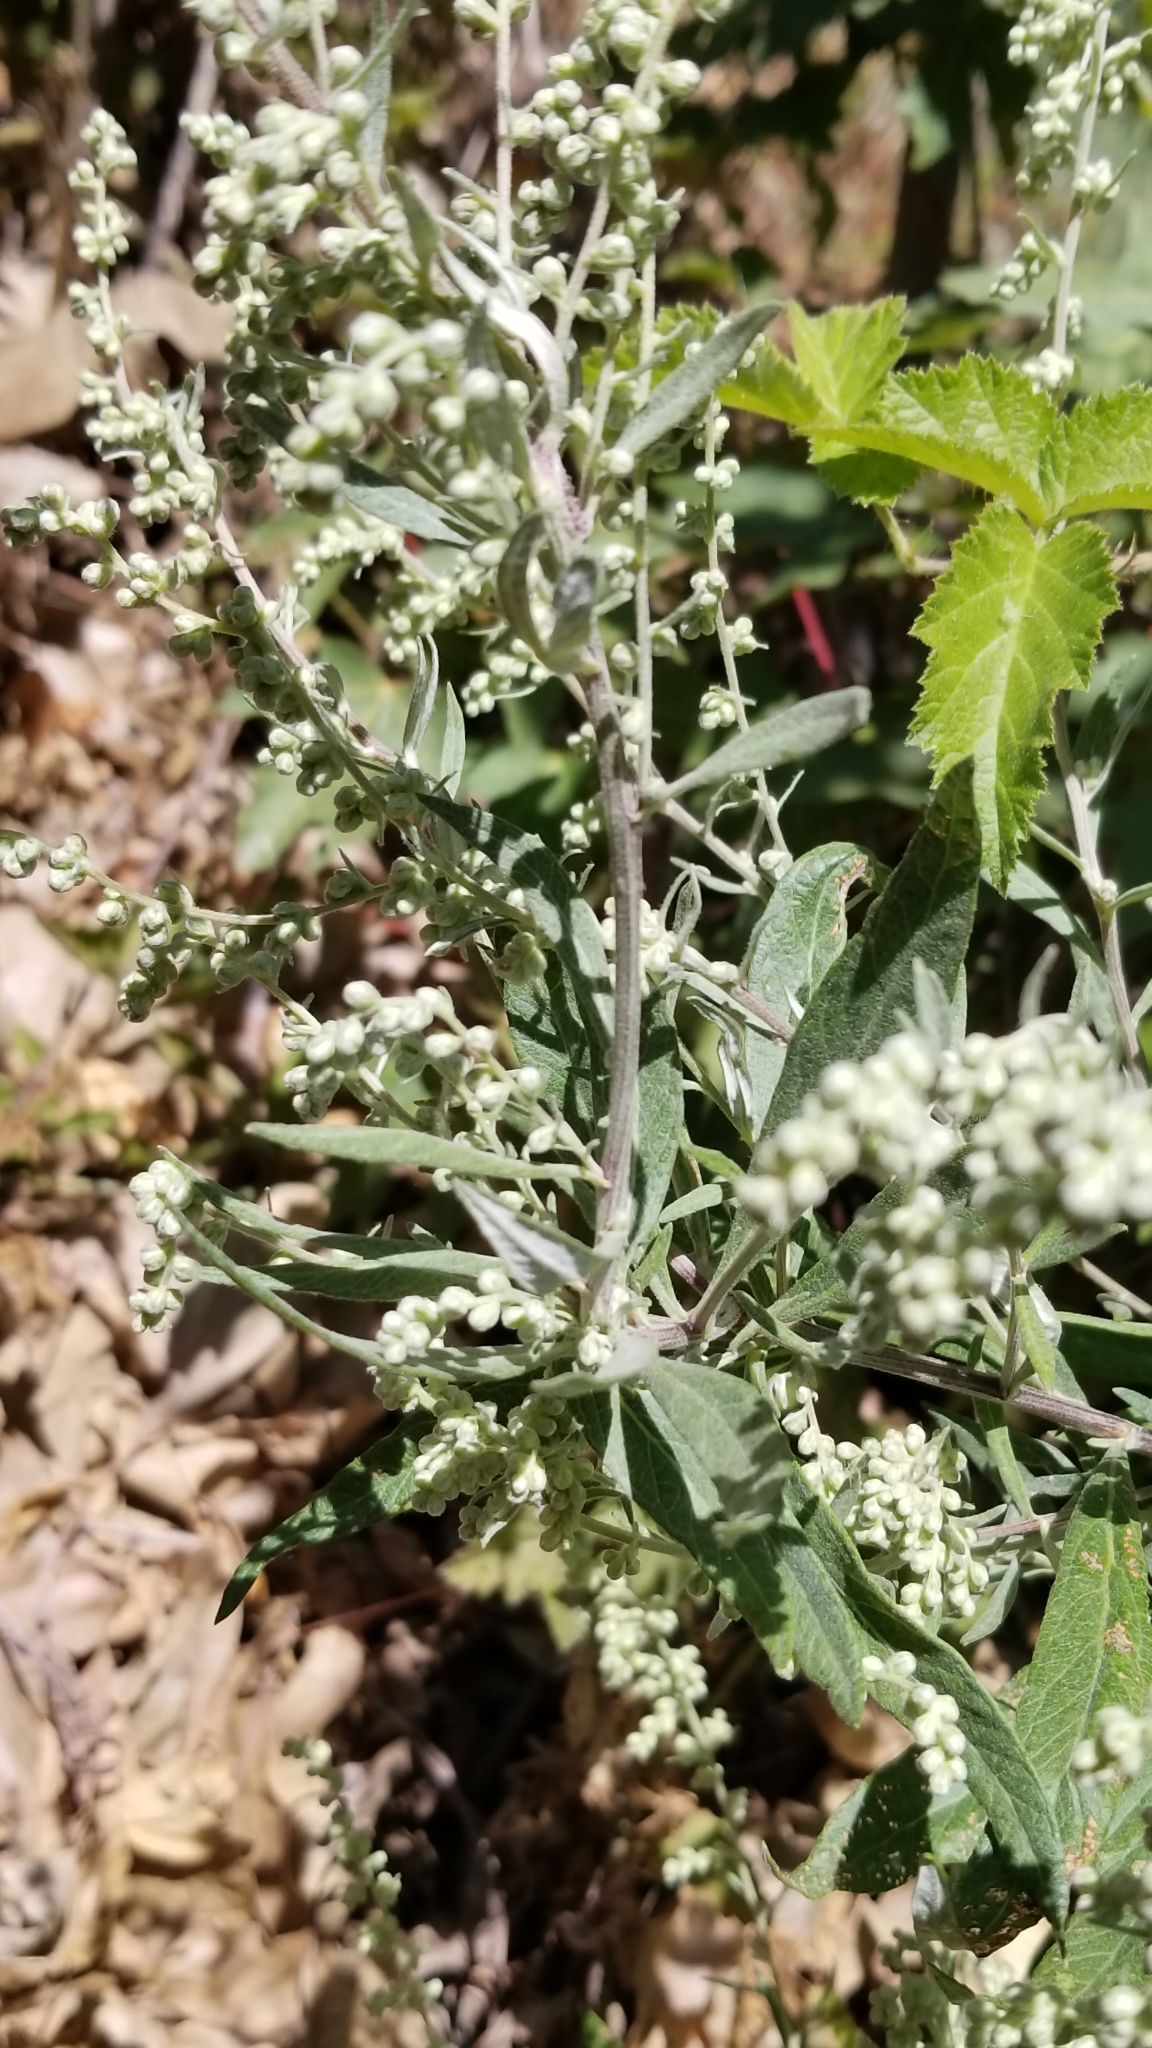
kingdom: Plantae
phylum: Tracheophyta
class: Magnoliopsida
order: Asterales
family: Asteraceae
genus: Artemisia
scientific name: Artemisia douglasiana
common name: Northwest mugwort
